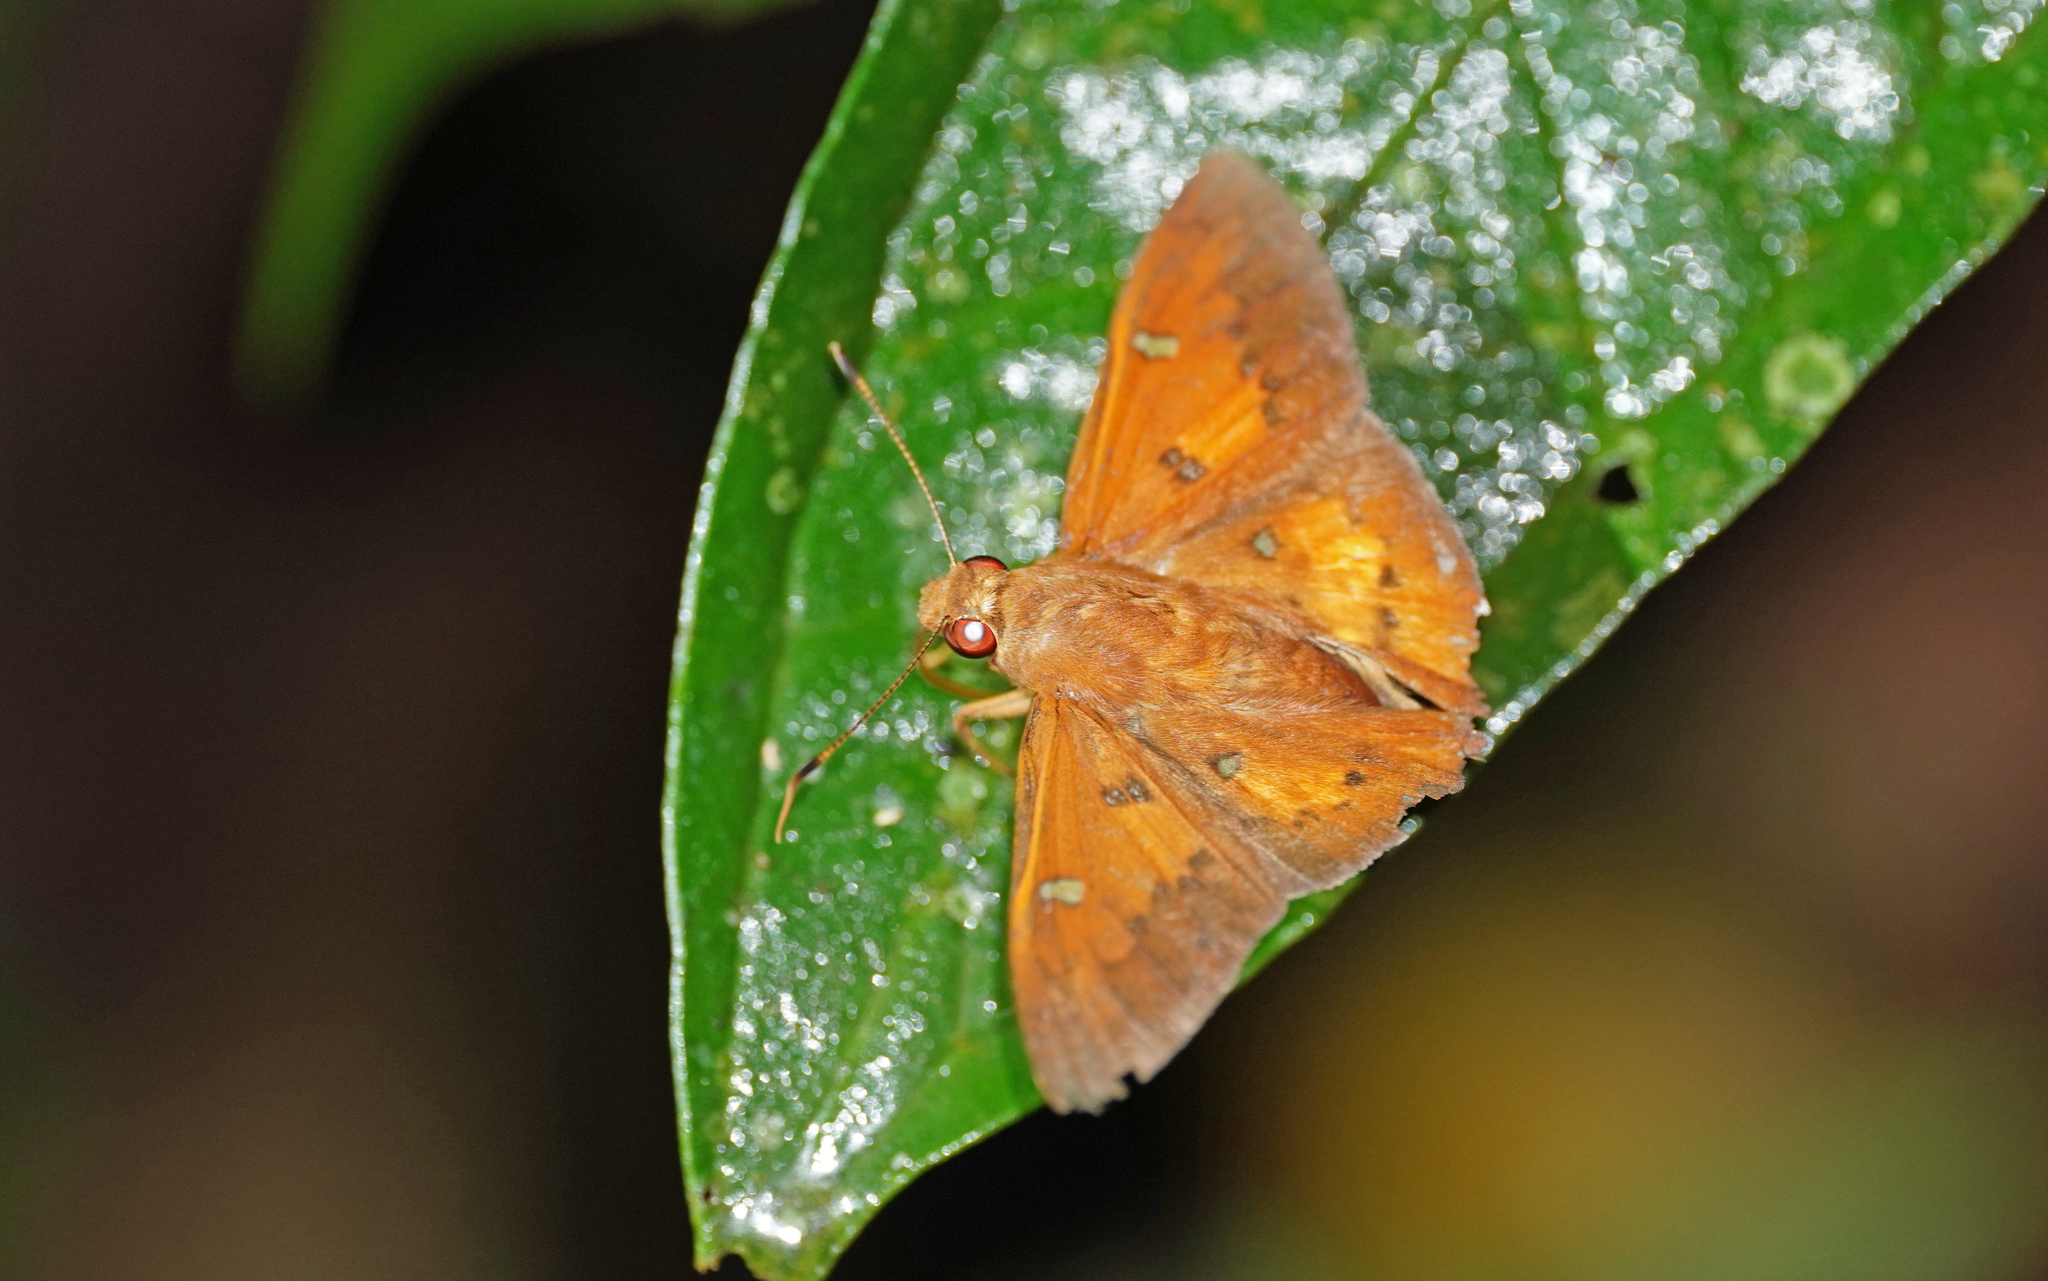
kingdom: Animalia
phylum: Arthropoda
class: Insecta
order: Lepidoptera
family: Hesperiidae
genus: Dyscophellus
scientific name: Dyscophellus porcius
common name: Fiery scarlet-eye
